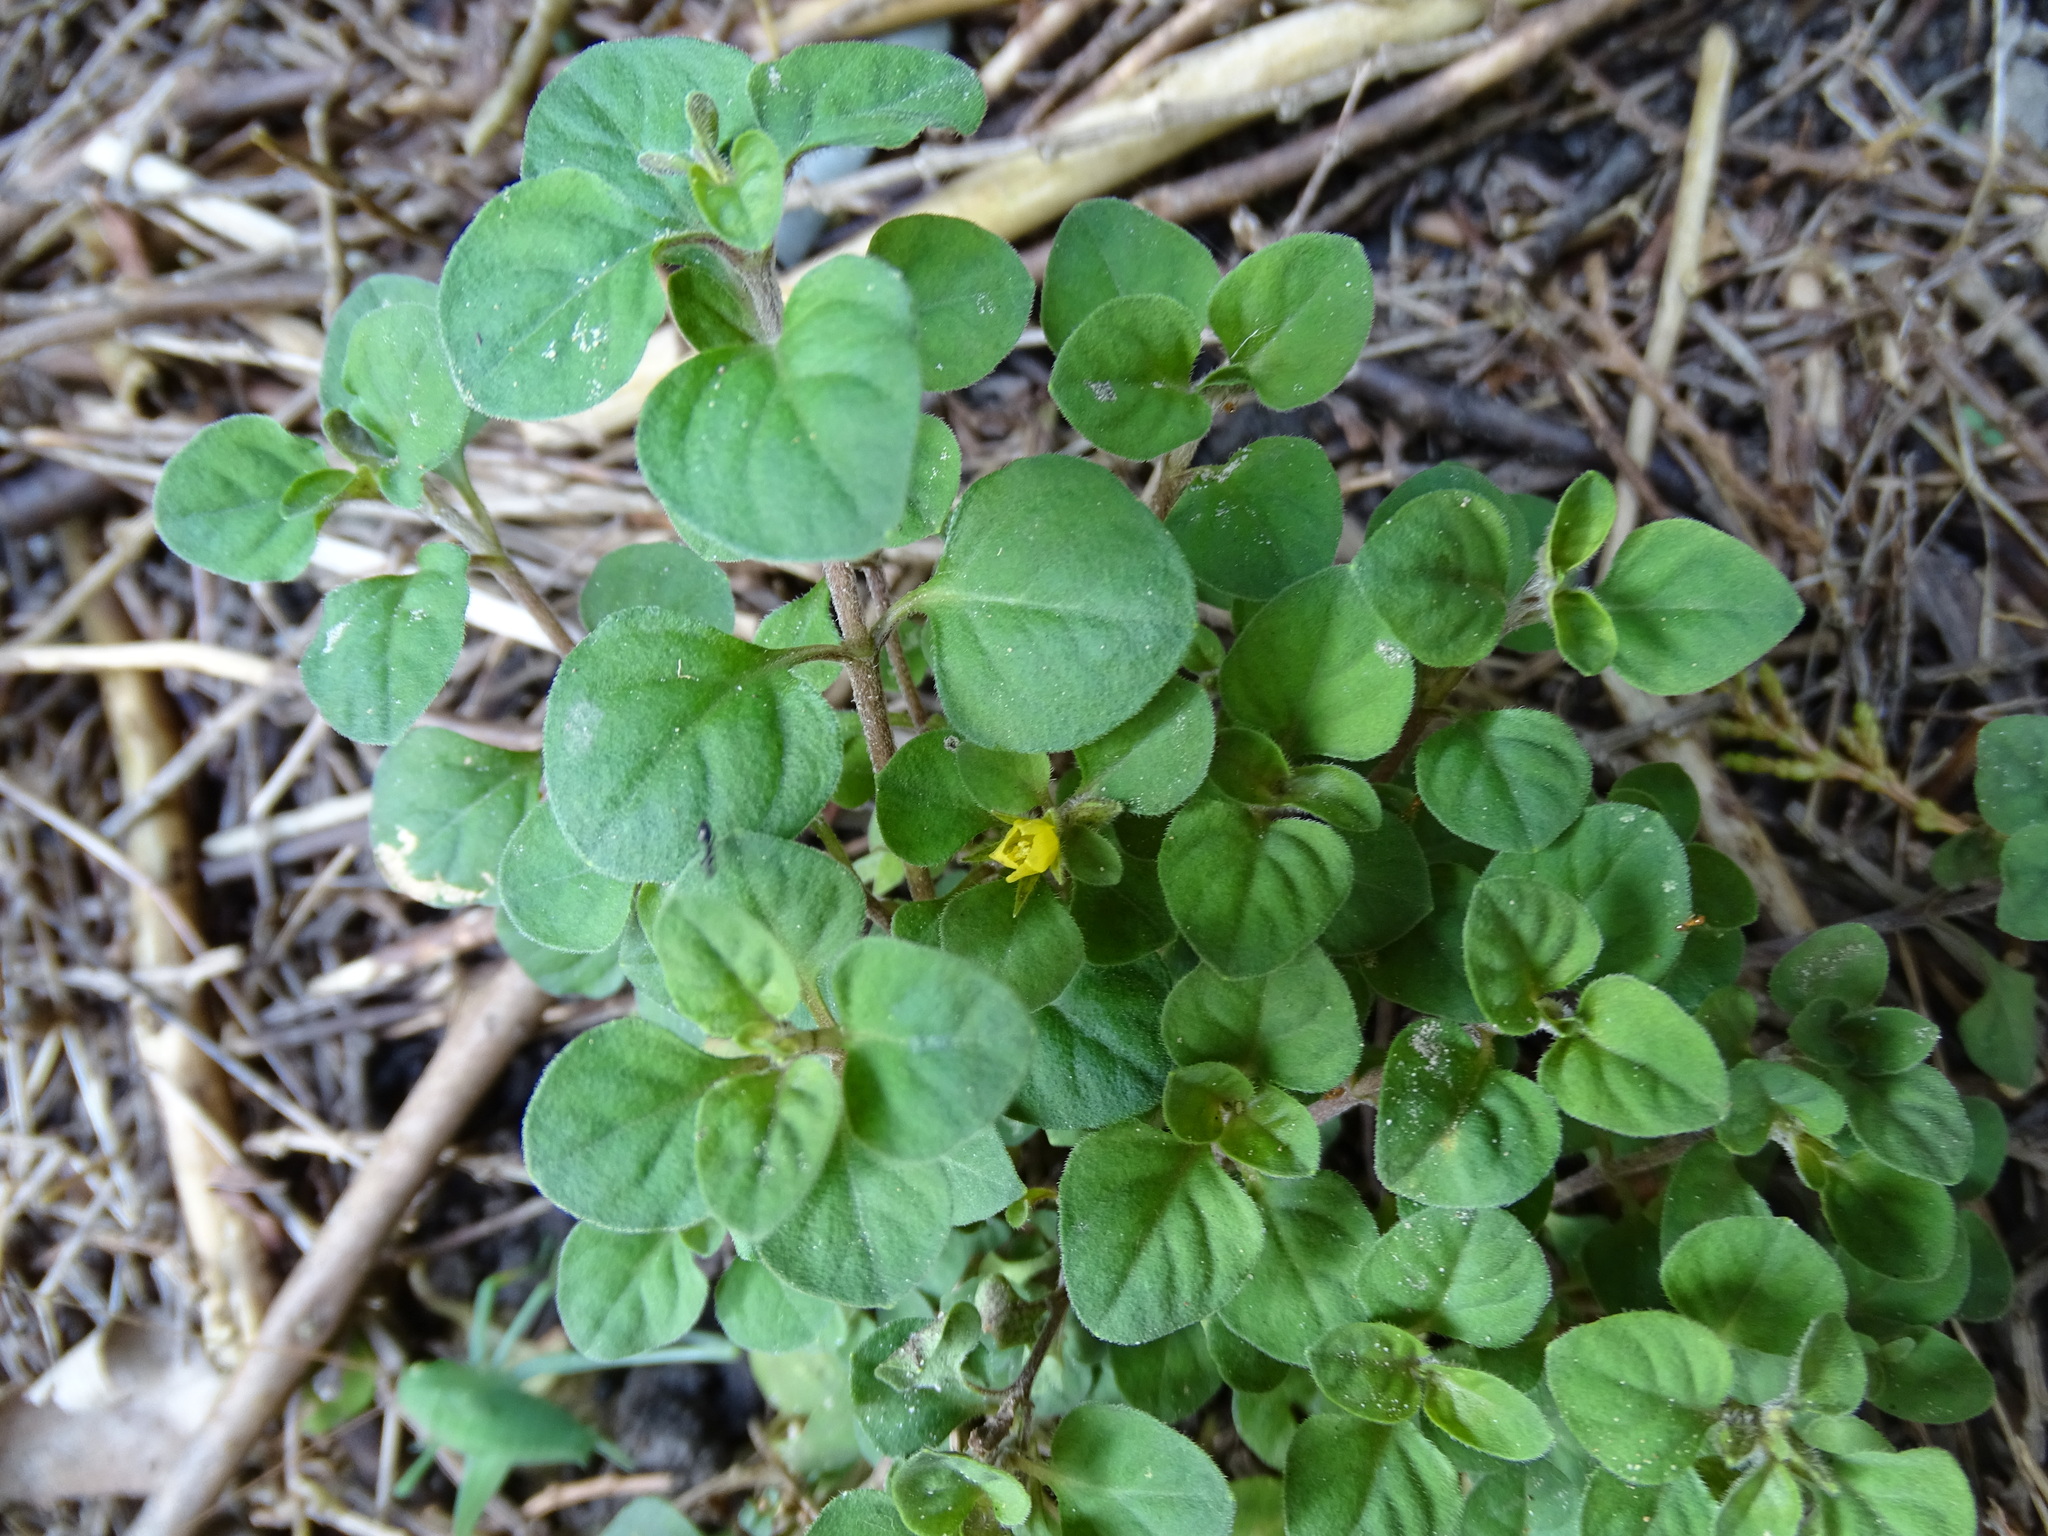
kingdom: Plantae
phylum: Tracheophyta
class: Magnoliopsida
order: Ericales
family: Primulaceae
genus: Lysimachia
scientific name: Lysimachia japonica
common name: Japanese yellow loosestrife
